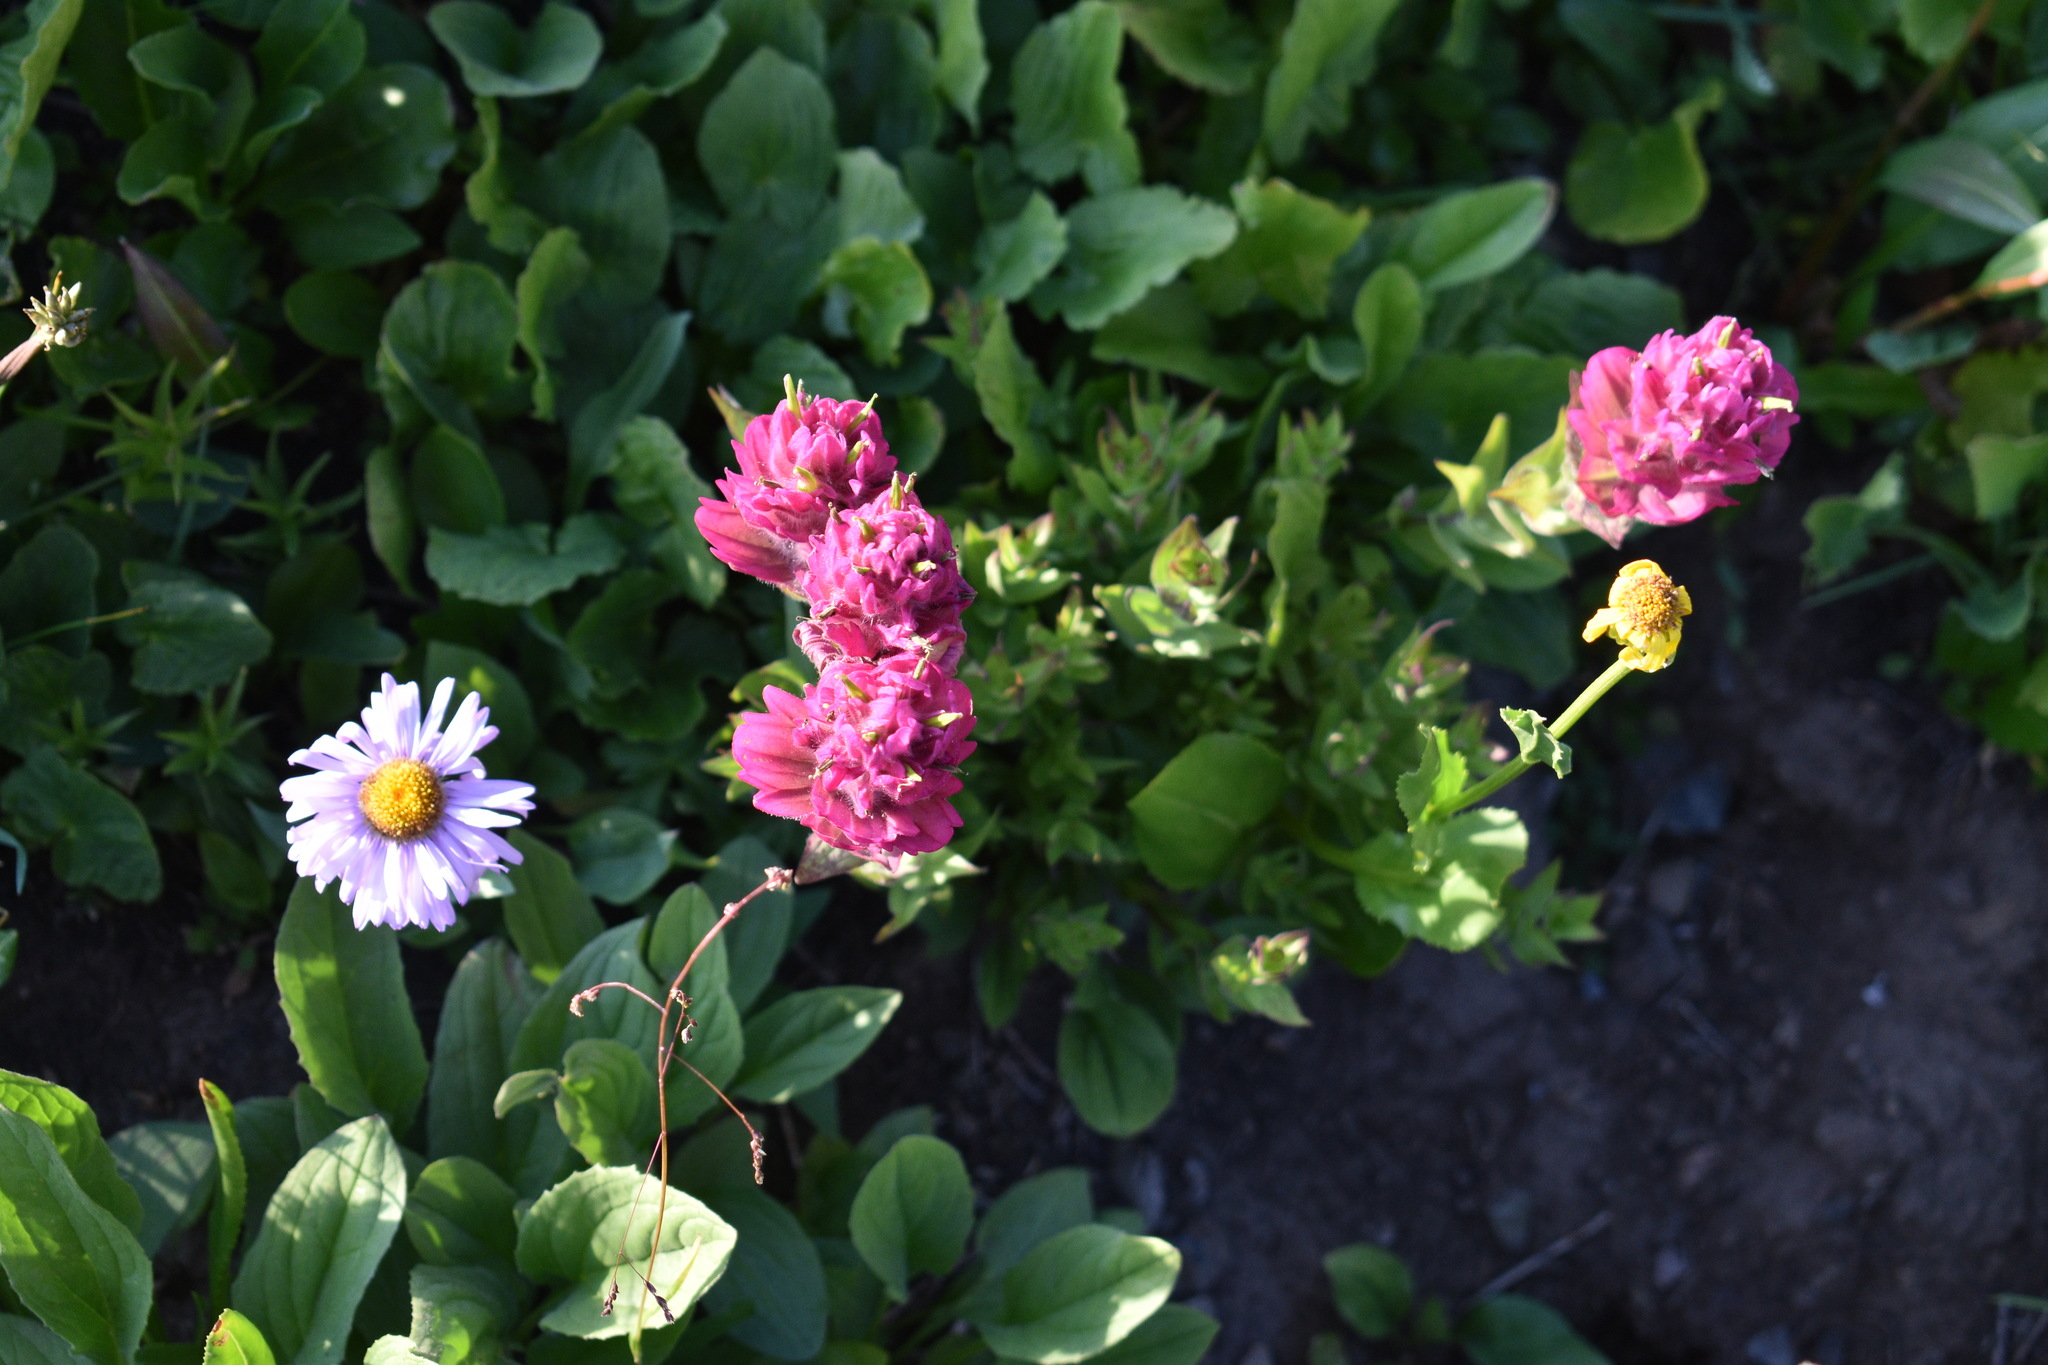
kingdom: Plantae
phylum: Tracheophyta
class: Magnoliopsida
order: Lamiales
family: Orobanchaceae
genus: Castilleja
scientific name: Castilleja rhexifolia
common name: Rocky mountain paintbrush
